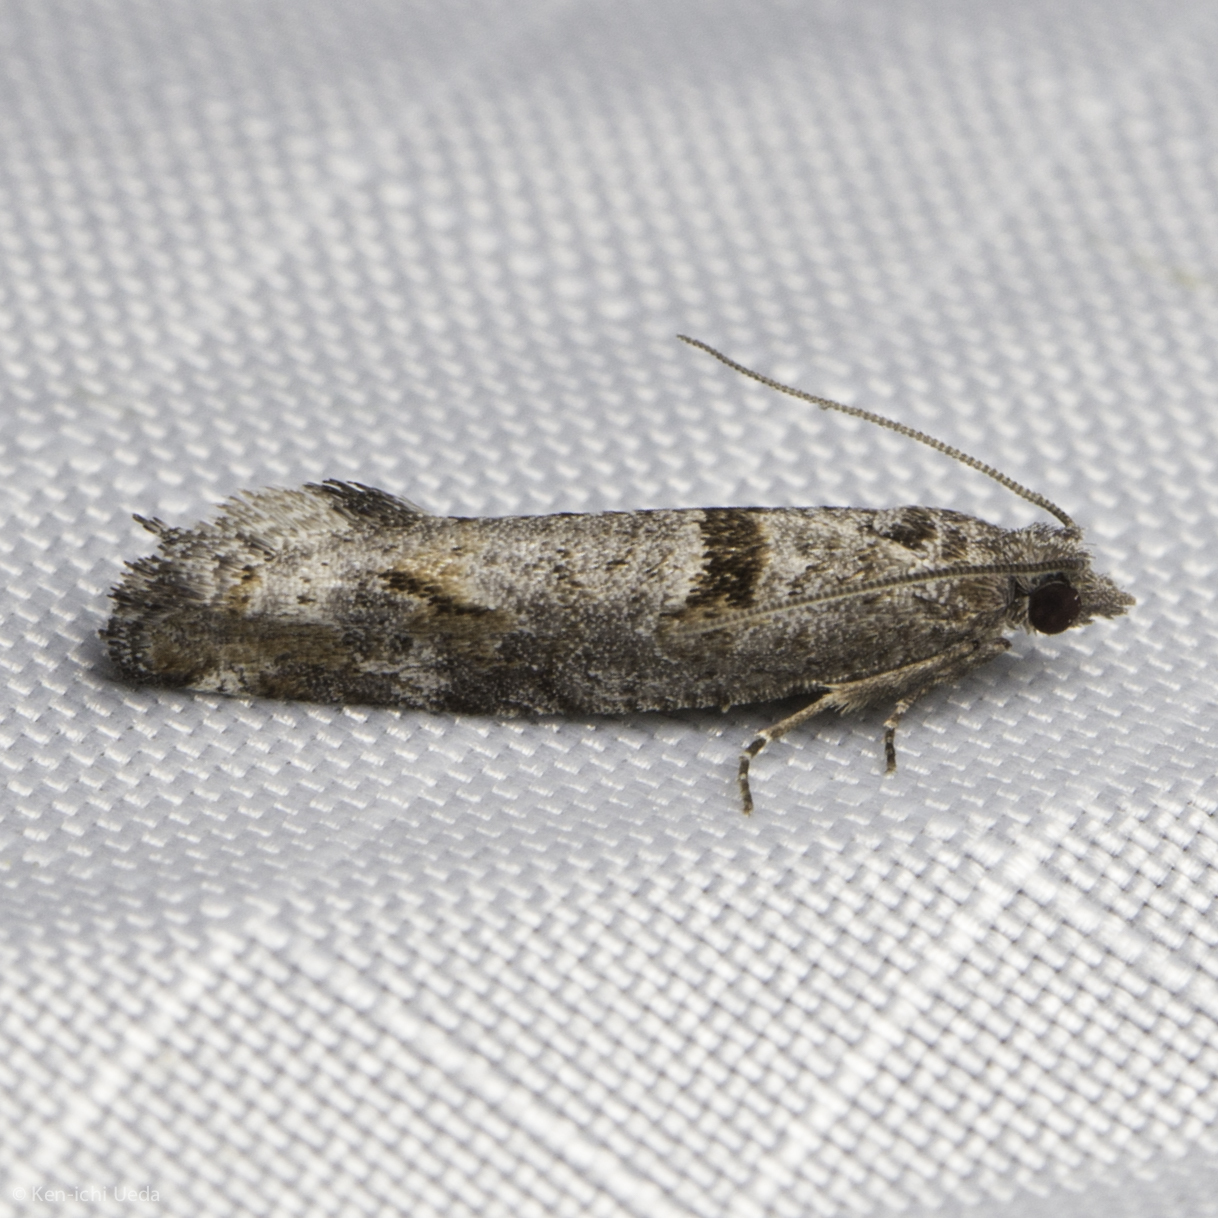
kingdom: Animalia
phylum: Arthropoda
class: Insecta
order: Lepidoptera
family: Tortricidae
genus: Pseudexentera
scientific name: Pseudexentera habrosana
